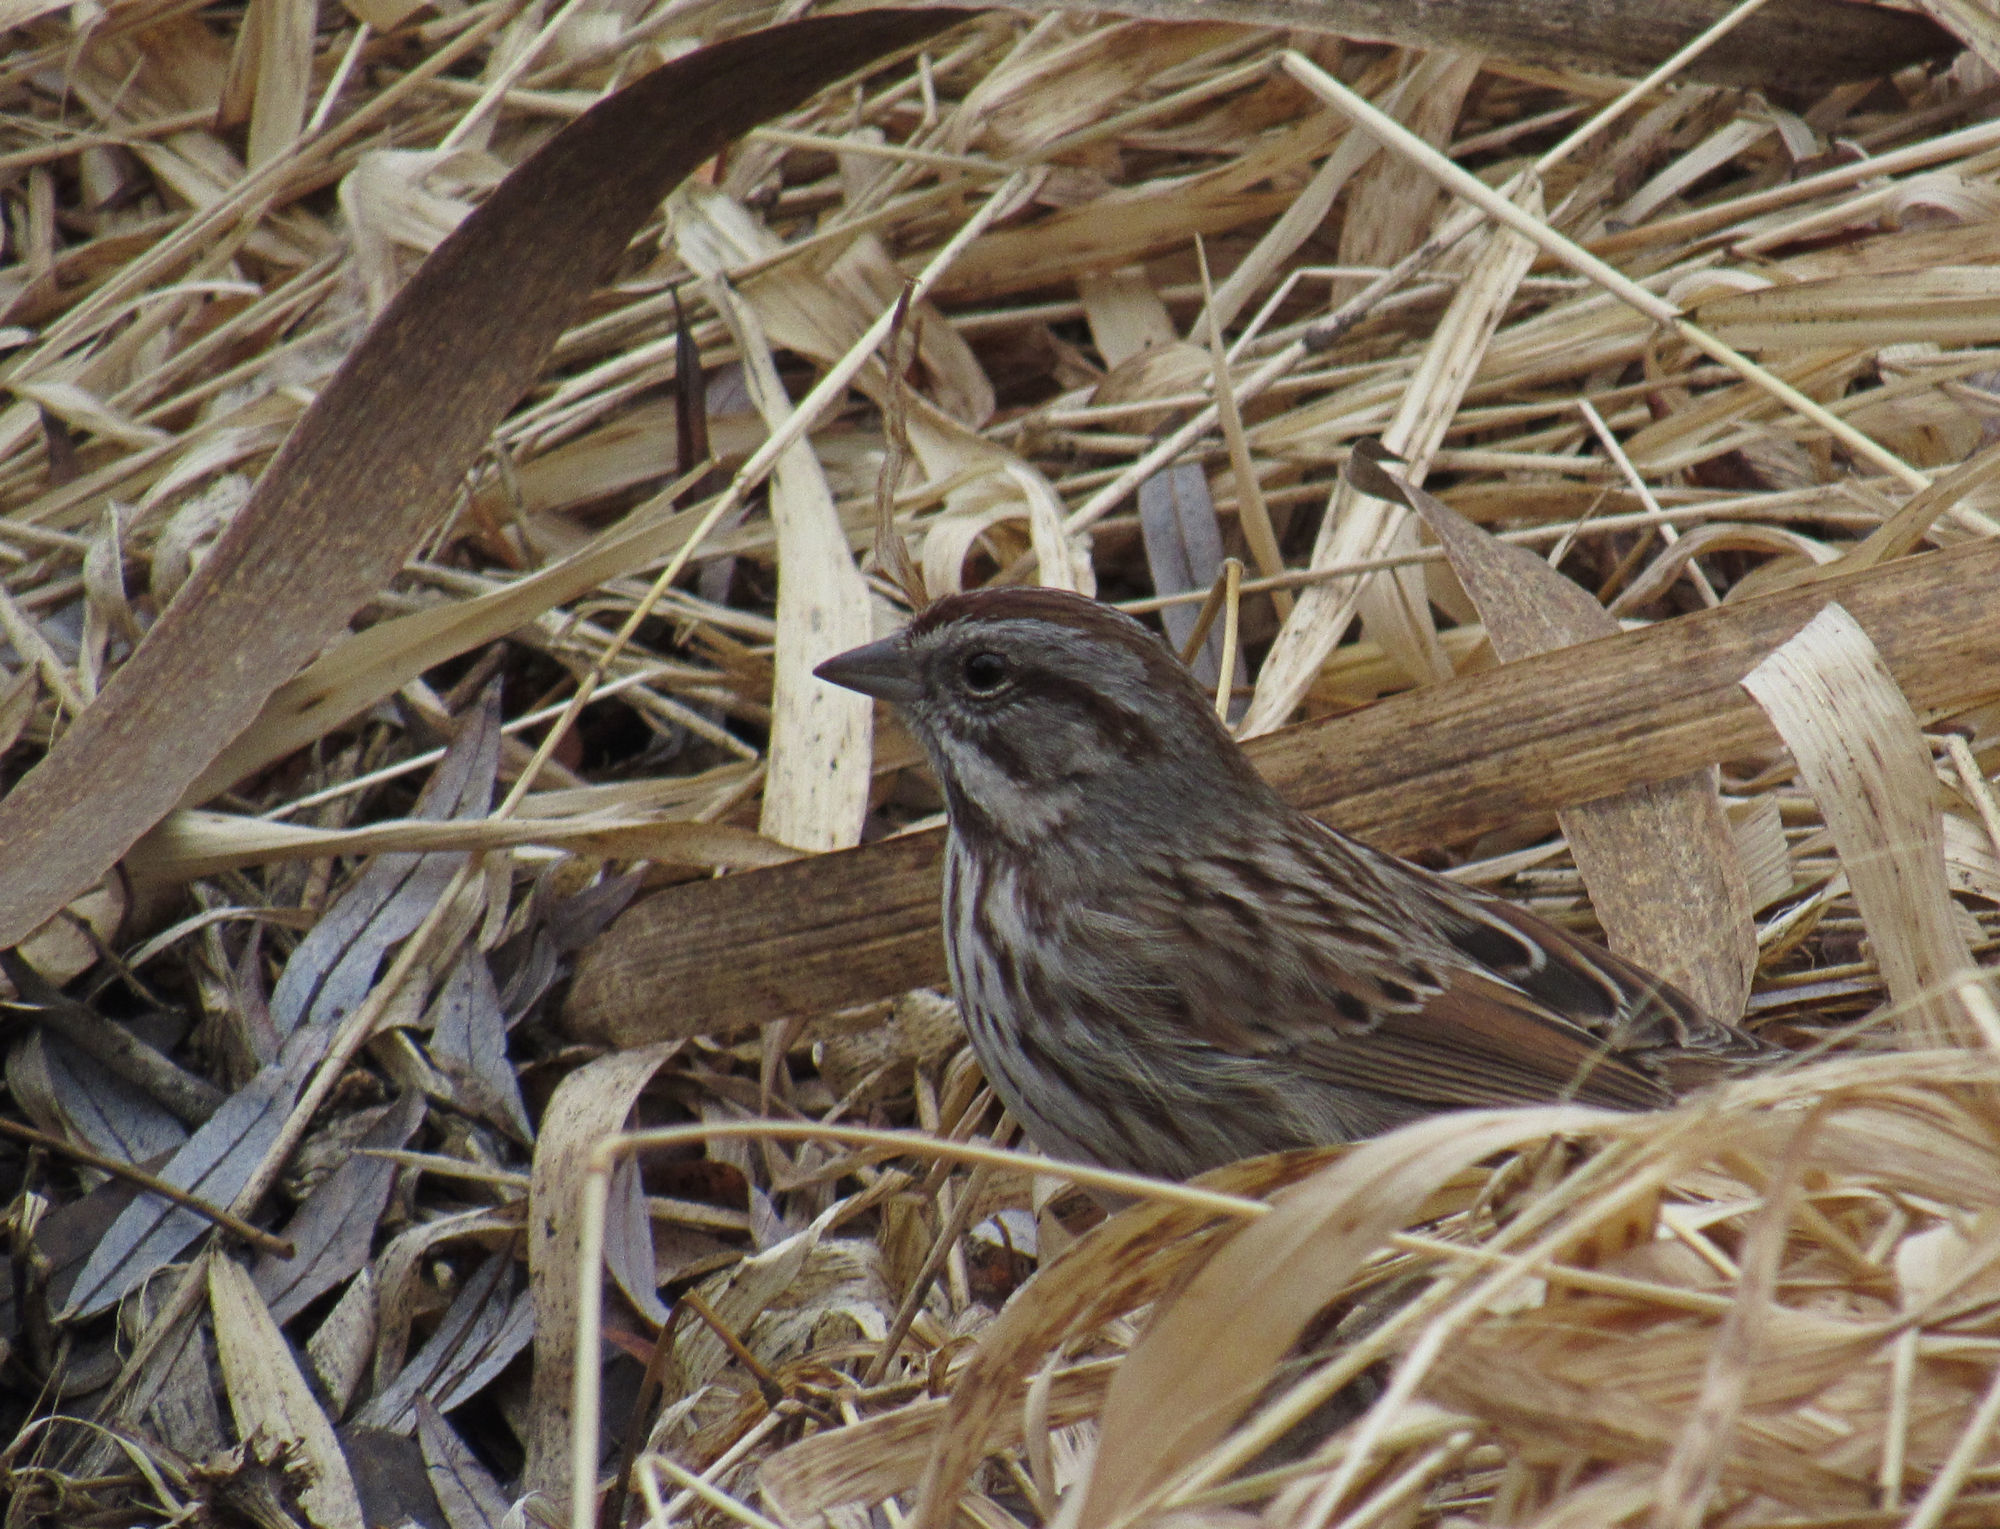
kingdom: Animalia
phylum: Chordata
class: Aves
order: Passeriformes
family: Passerellidae
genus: Melospiza
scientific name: Melospiza melodia
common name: Song sparrow
